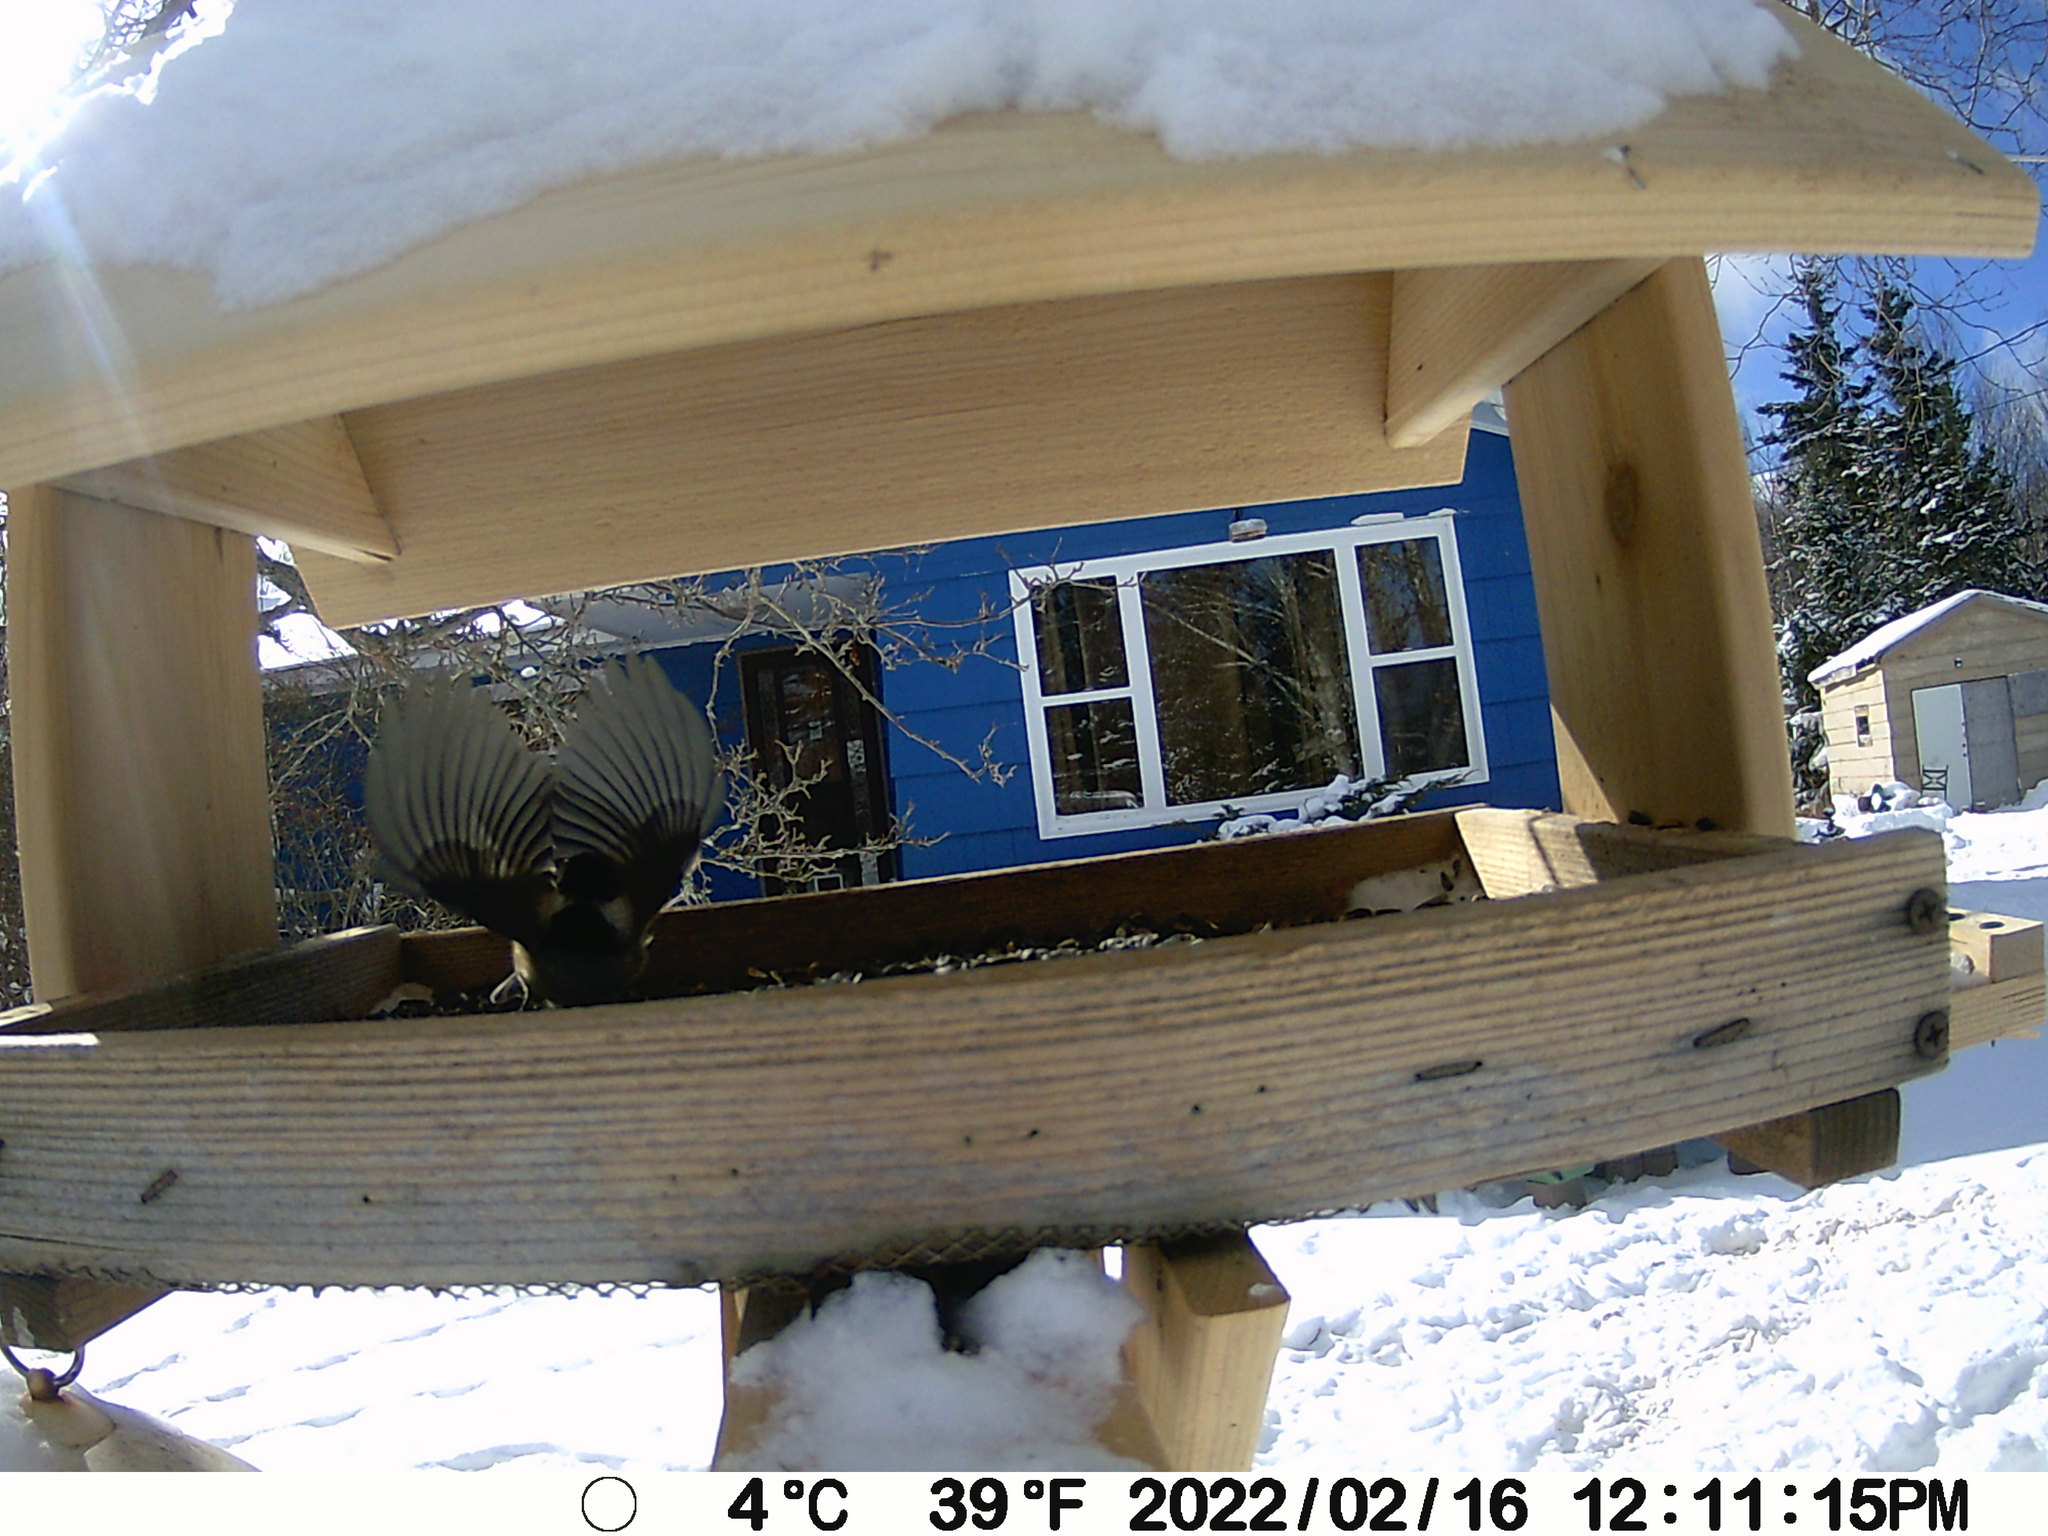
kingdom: Animalia
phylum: Chordata
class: Aves
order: Passeriformes
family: Paridae
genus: Poecile
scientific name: Poecile atricapillus
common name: Black-capped chickadee
